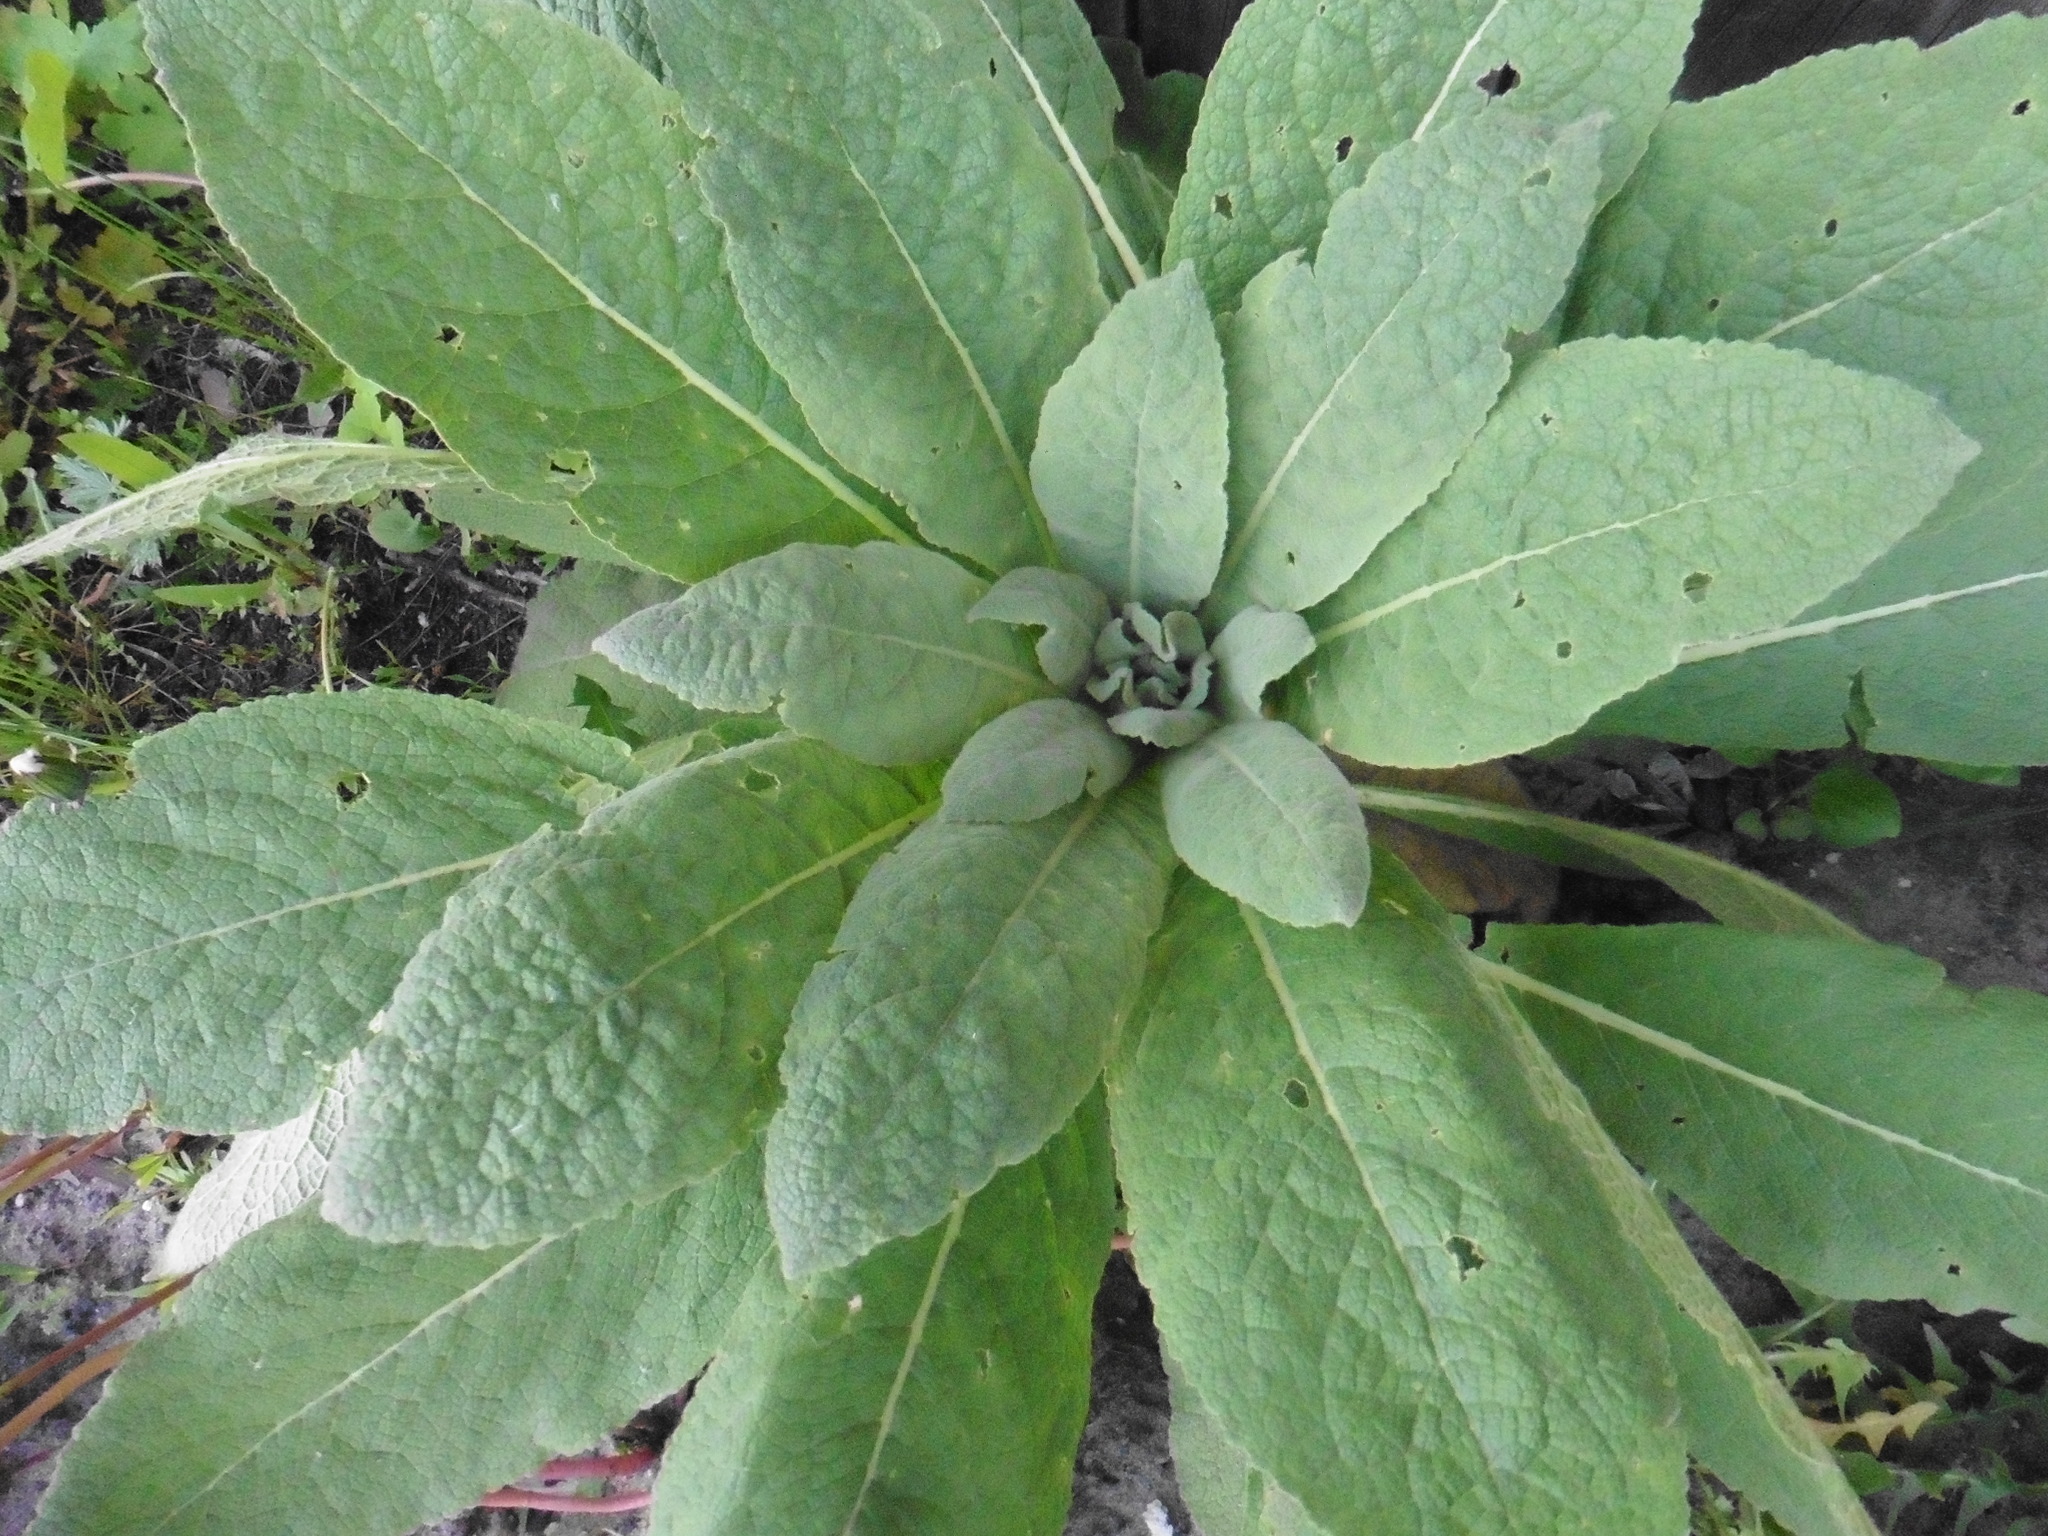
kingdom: Plantae
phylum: Tracheophyta
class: Magnoliopsida
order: Lamiales
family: Scrophulariaceae
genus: Verbascum
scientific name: Verbascum thapsus
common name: Common mullein
